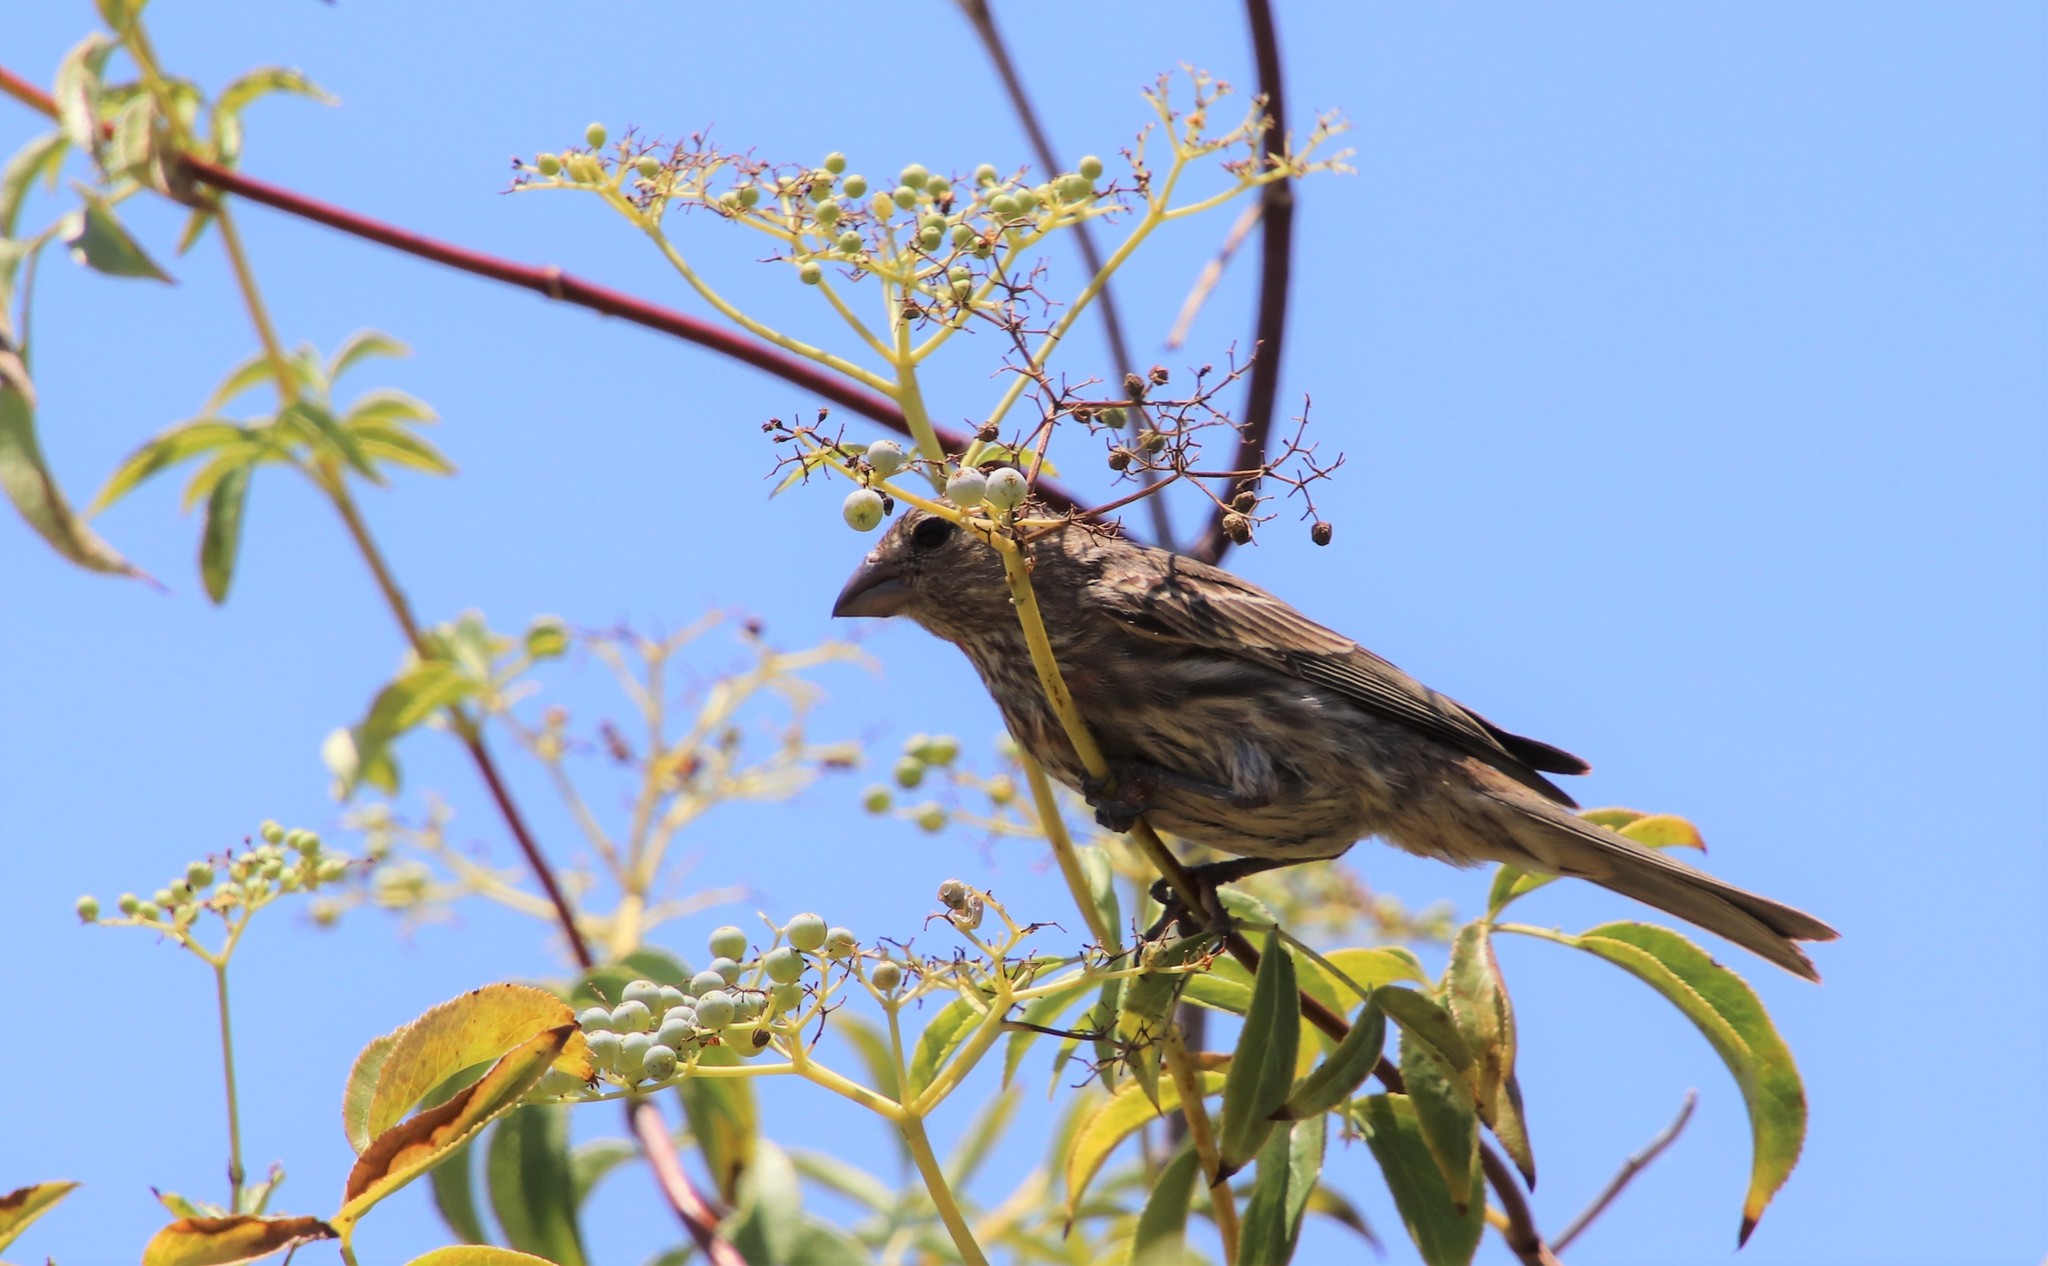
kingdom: Animalia
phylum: Chordata
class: Aves
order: Passeriformes
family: Fringillidae
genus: Haemorhous
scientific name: Haemorhous mexicanus
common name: House finch
